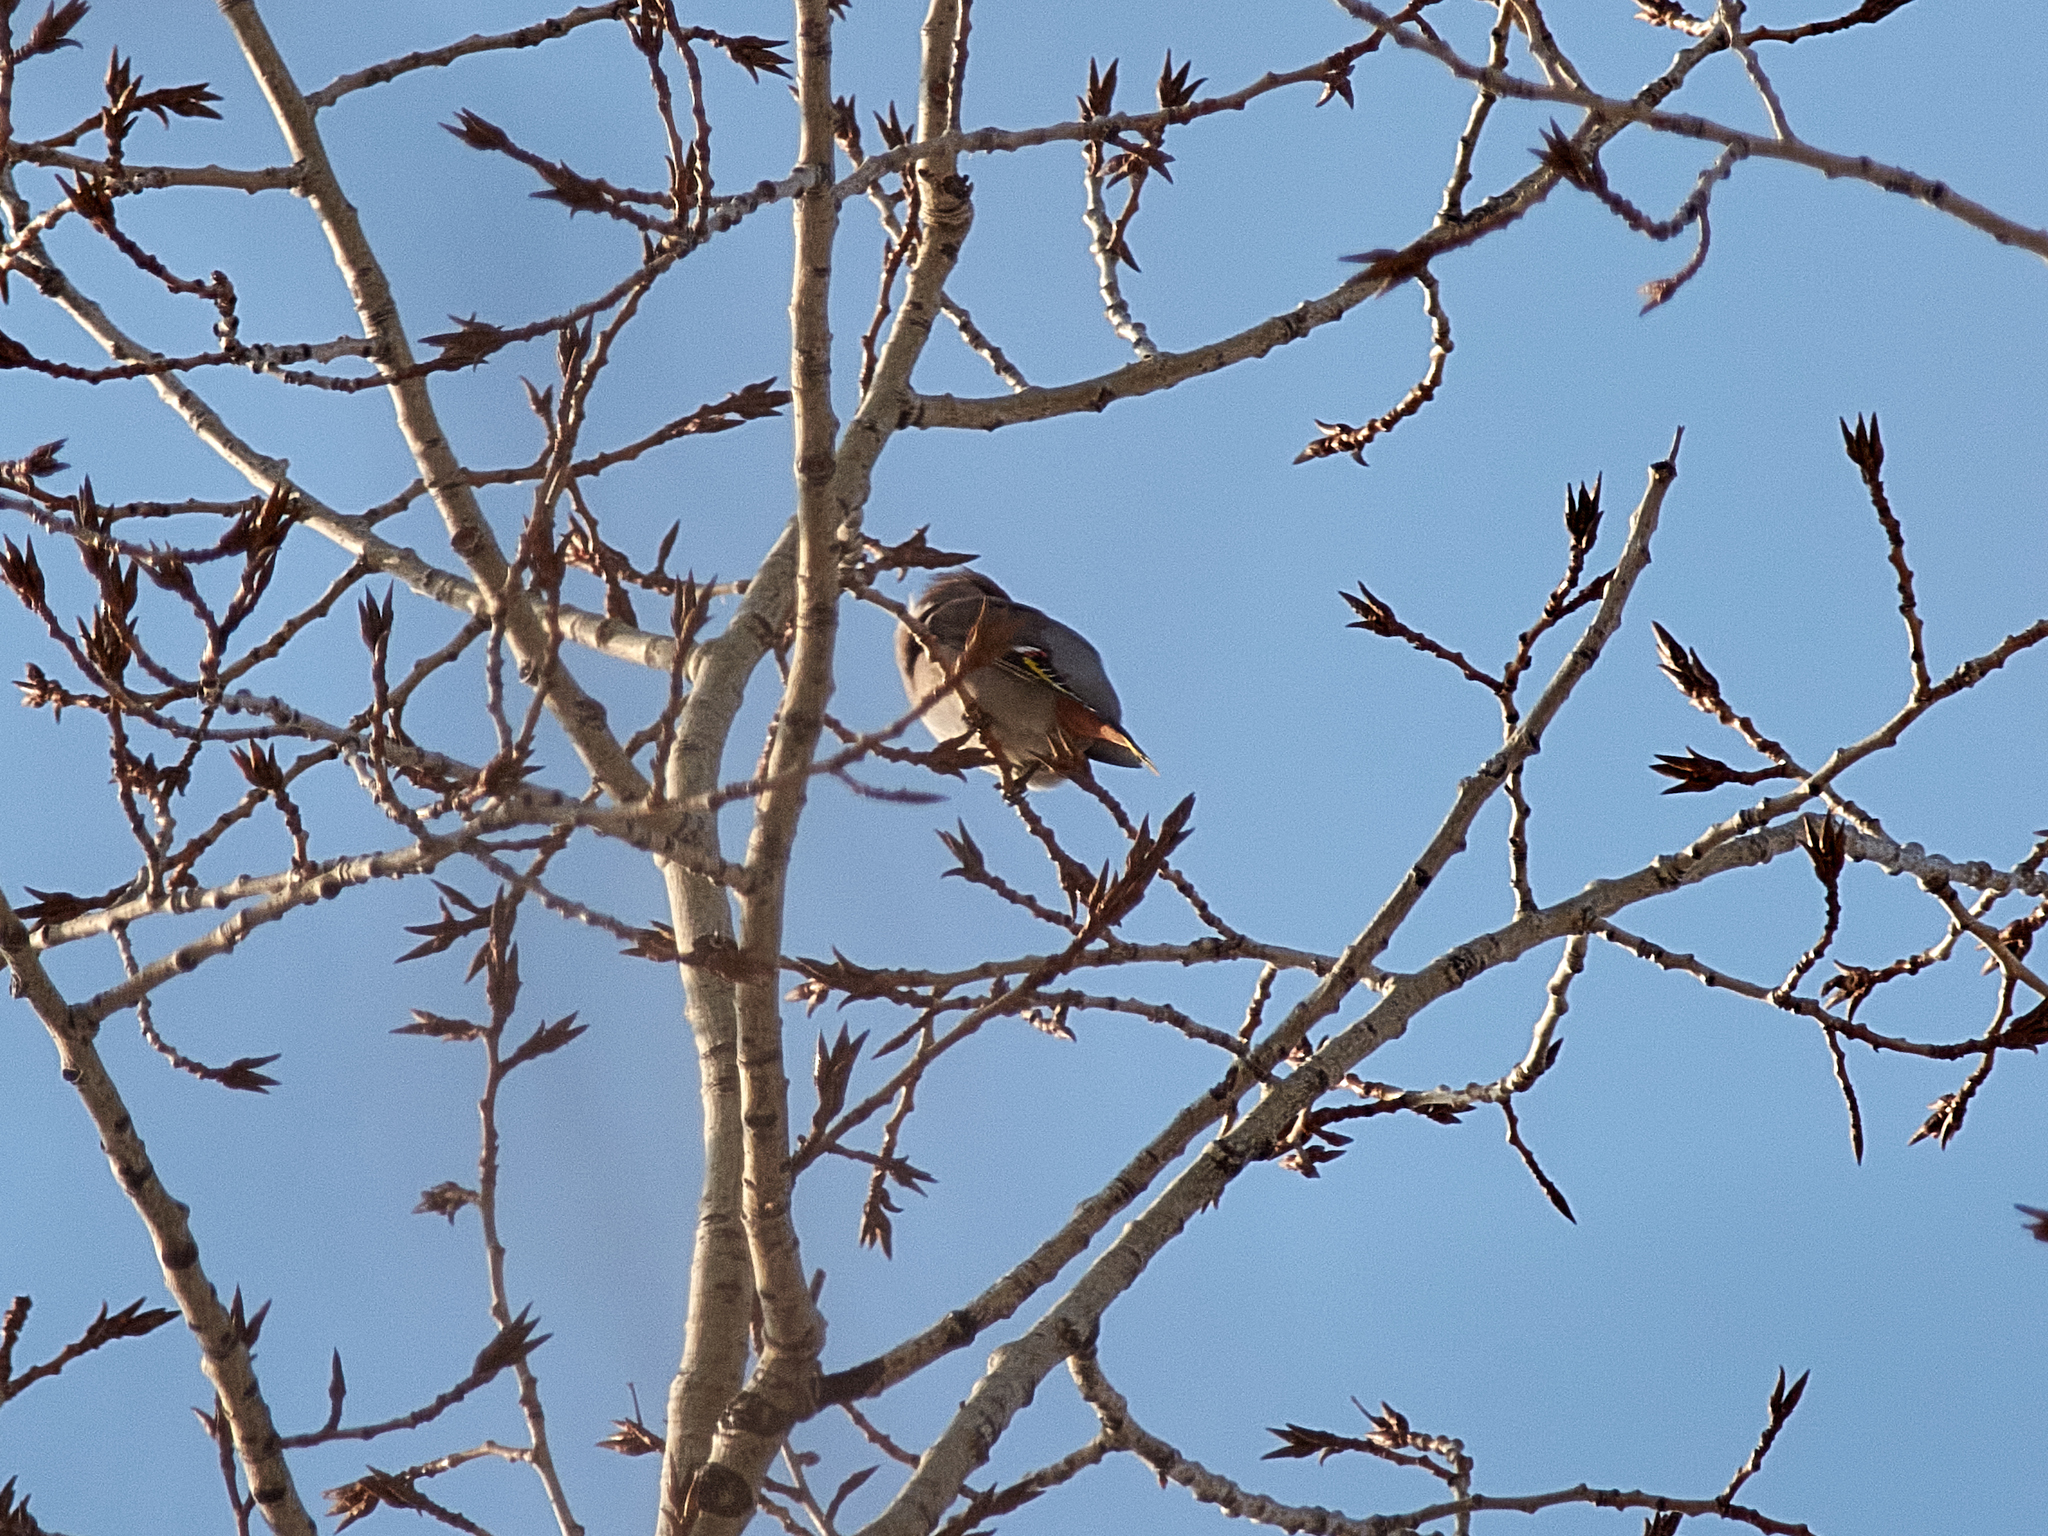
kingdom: Animalia
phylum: Chordata
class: Aves
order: Passeriformes
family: Bombycillidae
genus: Bombycilla
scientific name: Bombycilla garrulus
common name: Bohemian waxwing
